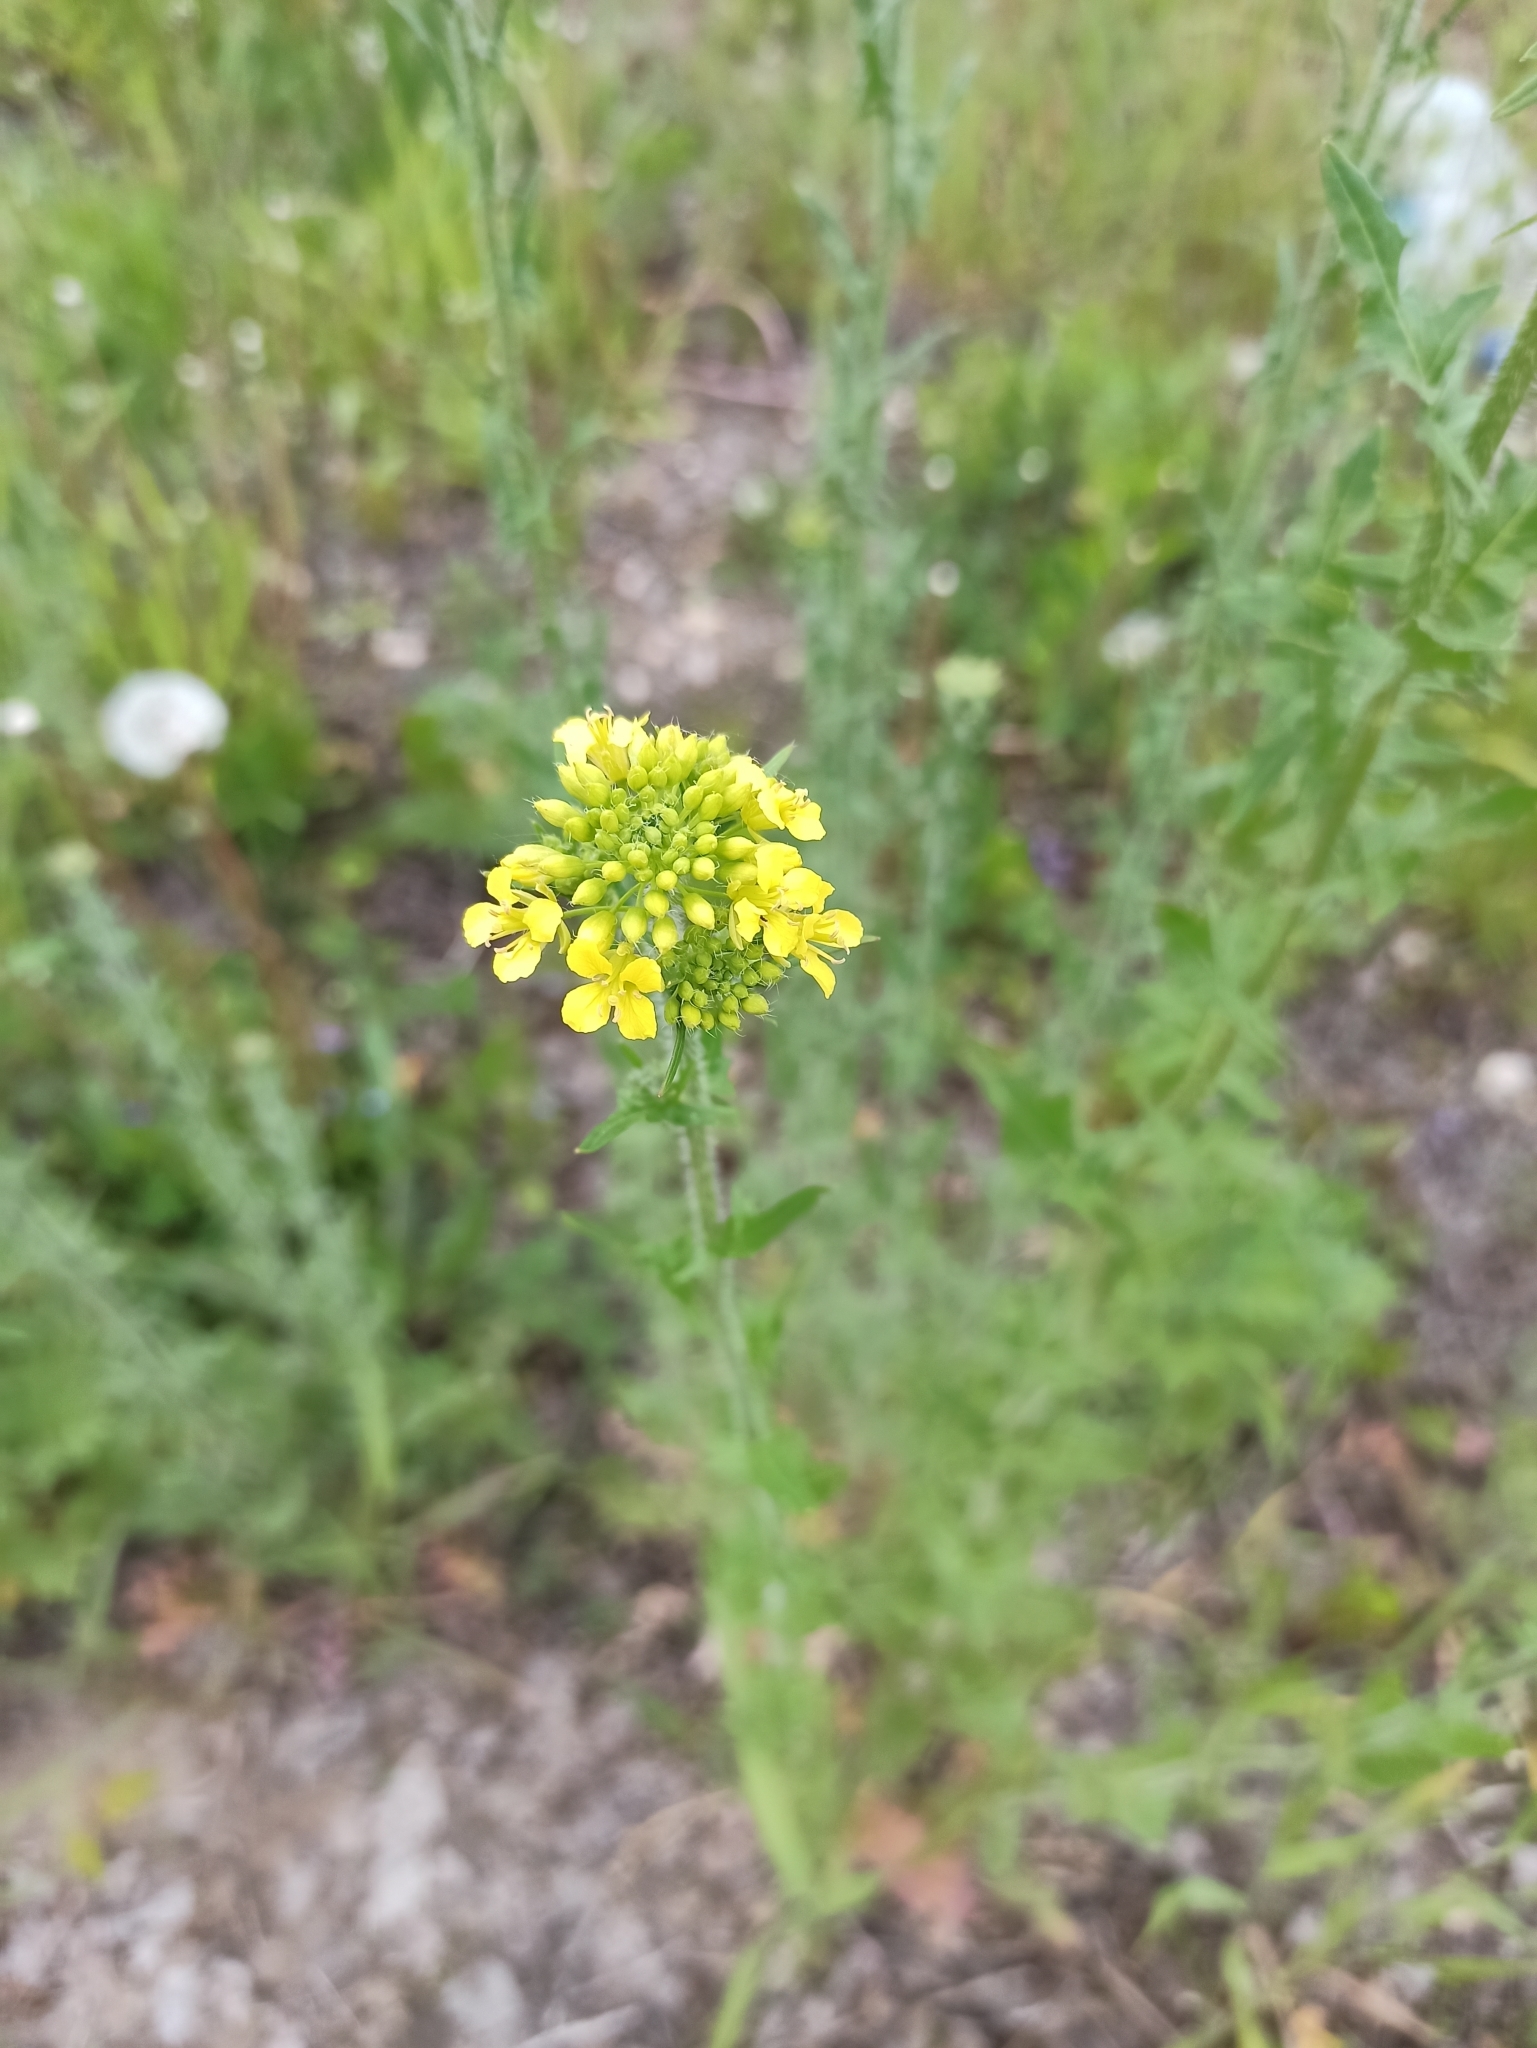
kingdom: Plantae
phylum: Tracheophyta
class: Magnoliopsida
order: Brassicales
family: Brassicaceae
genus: Sisymbrium
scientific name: Sisymbrium loeselii
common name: False london-rocket
